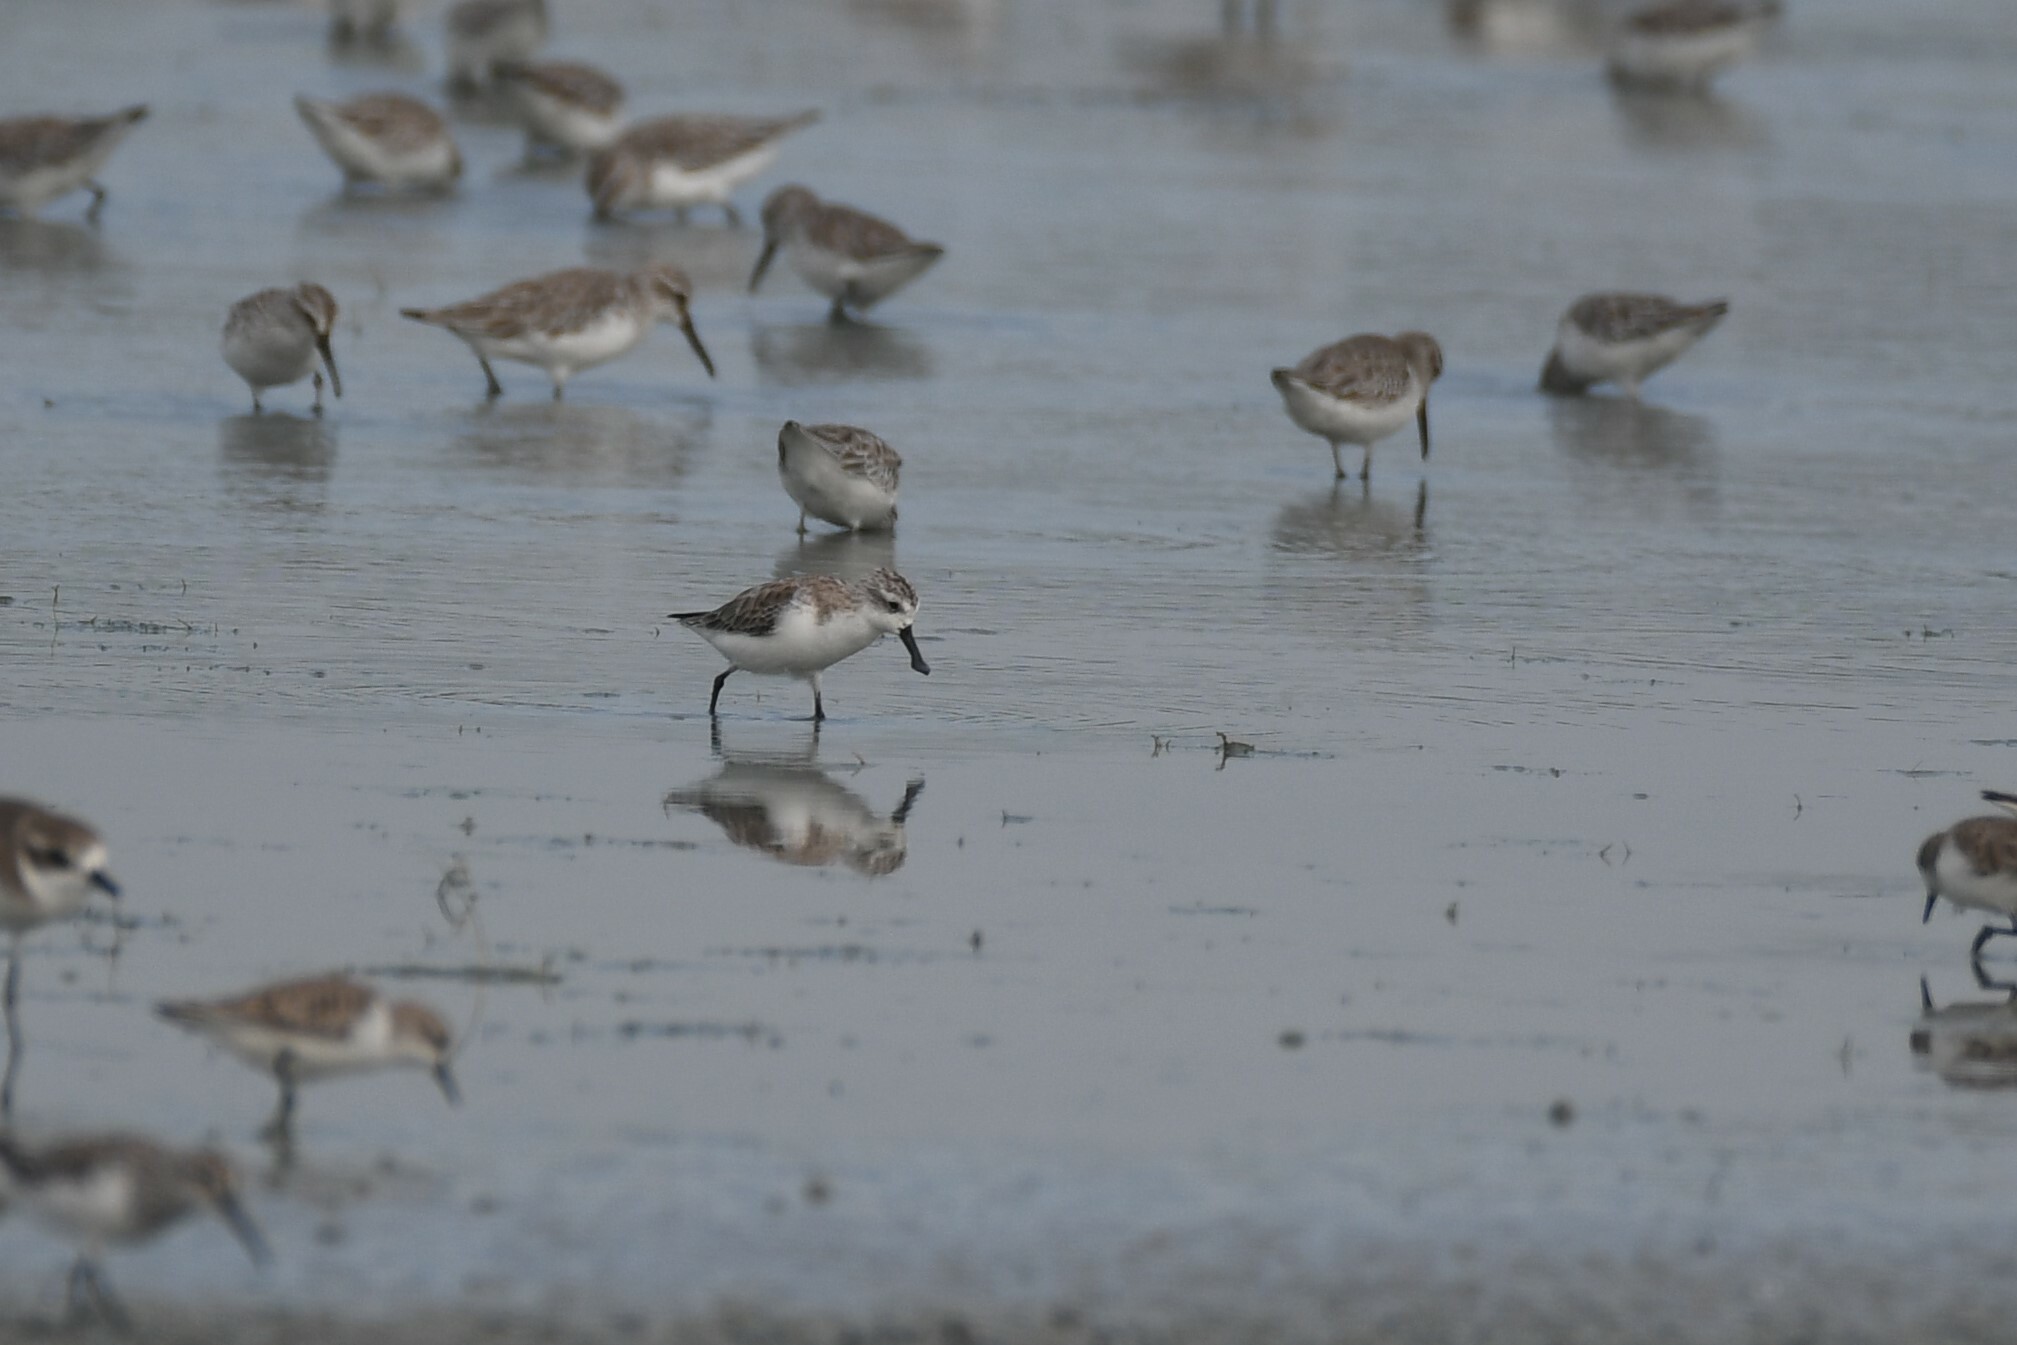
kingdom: Animalia
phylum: Chordata
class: Aves
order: Charadriiformes
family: Scolopacidae
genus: Calidris
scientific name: Calidris pygmaea
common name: Spoon-billed sandpiper
